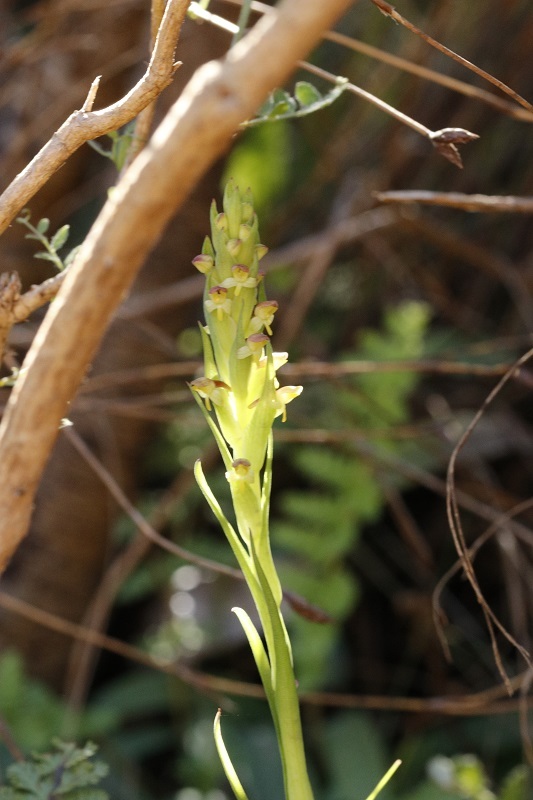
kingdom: Plantae
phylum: Tracheophyta
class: Liliopsida
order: Asparagales
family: Orchidaceae
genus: Disa
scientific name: Disa bracteata
